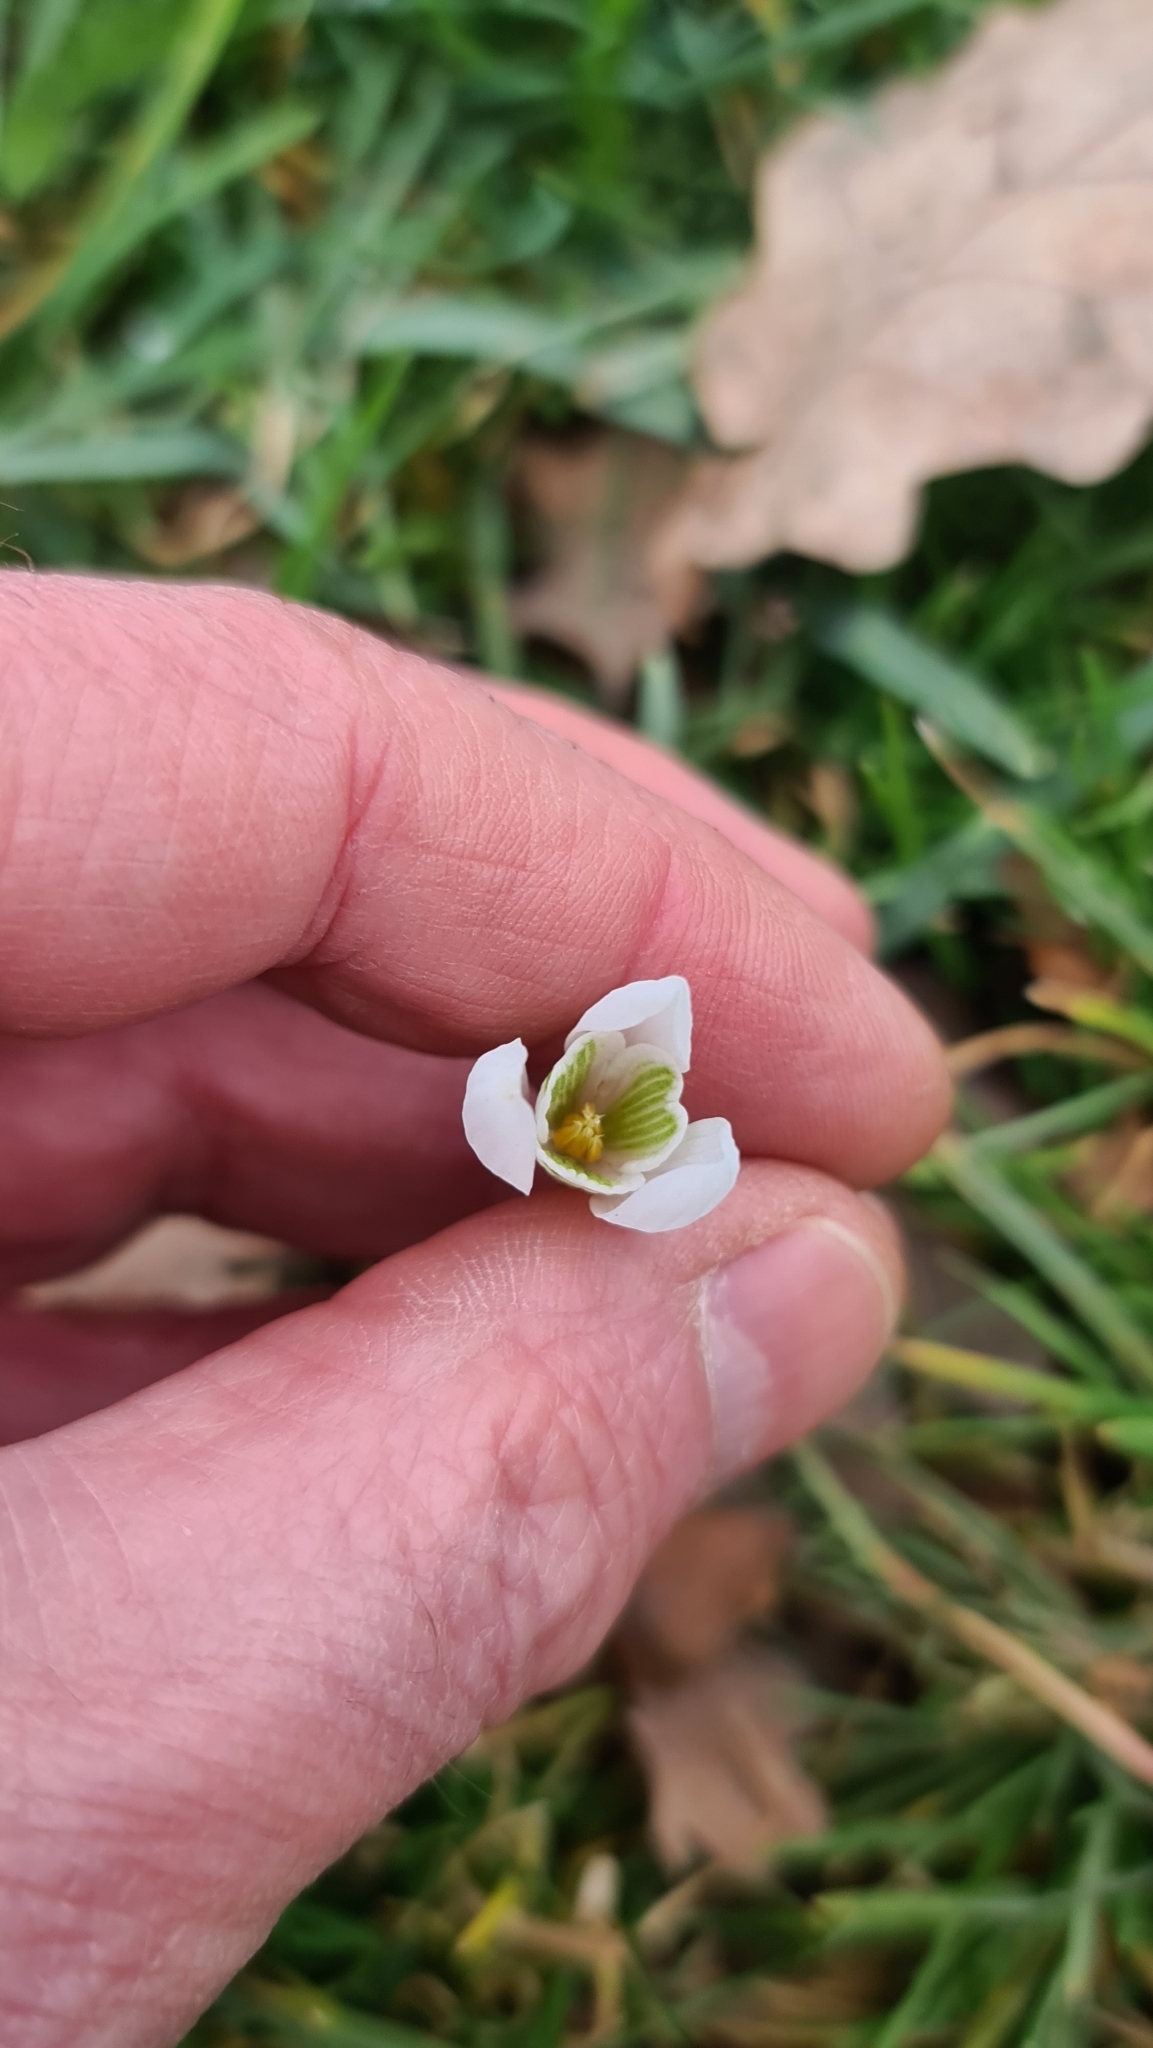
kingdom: Plantae
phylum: Tracheophyta
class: Liliopsida
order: Asparagales
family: Amaryllidaceae
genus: Galanthus
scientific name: Galanthus nivalis
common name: Snowdrop
